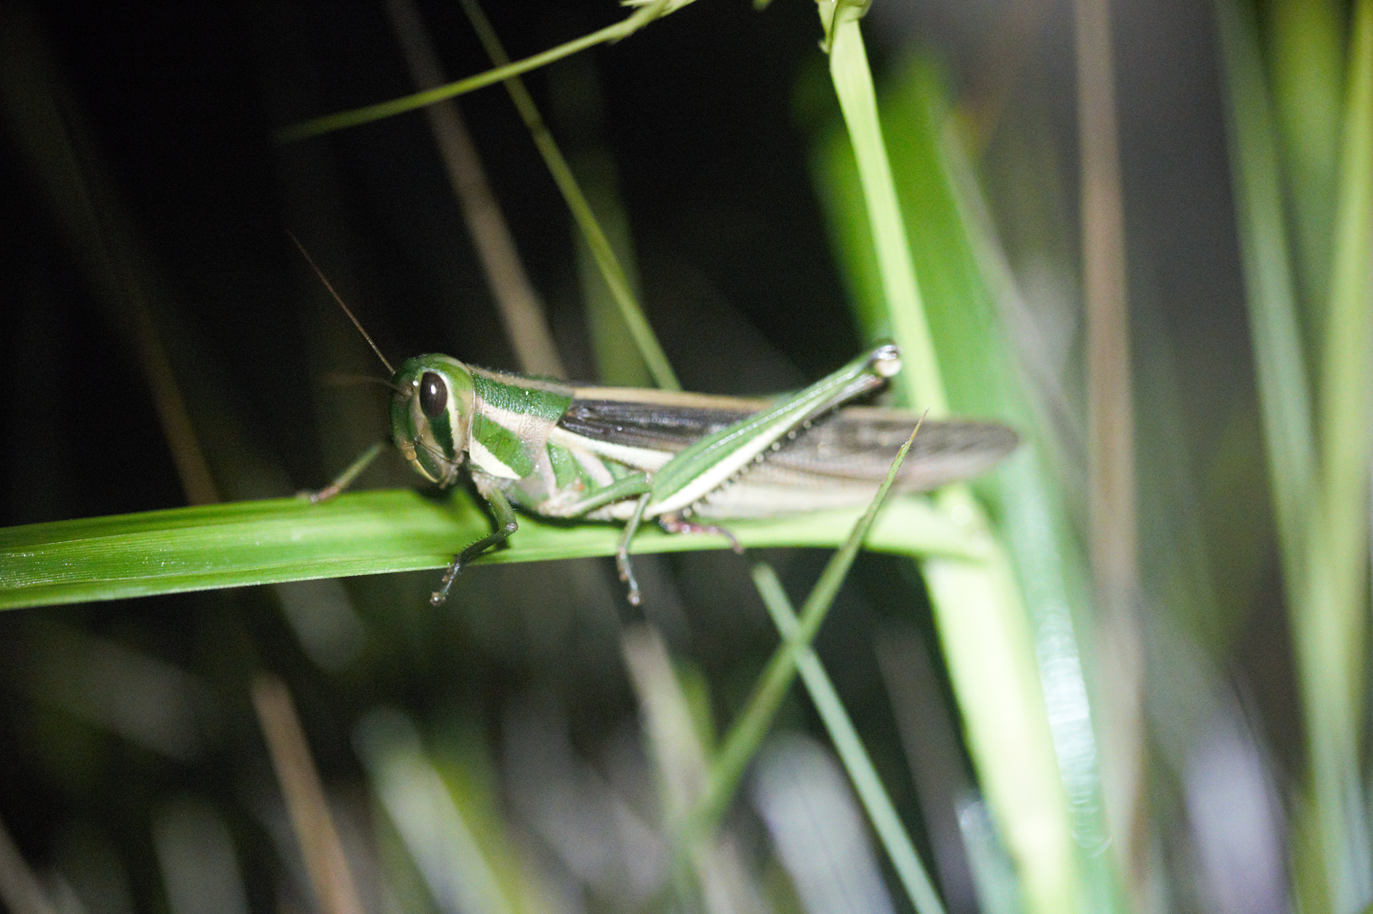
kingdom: Animalia
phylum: Arthropoda
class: Insecta
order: Orthoptera
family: Acrididae
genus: Schistocerca
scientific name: Schistocerca pallens
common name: Bird grasshopper
